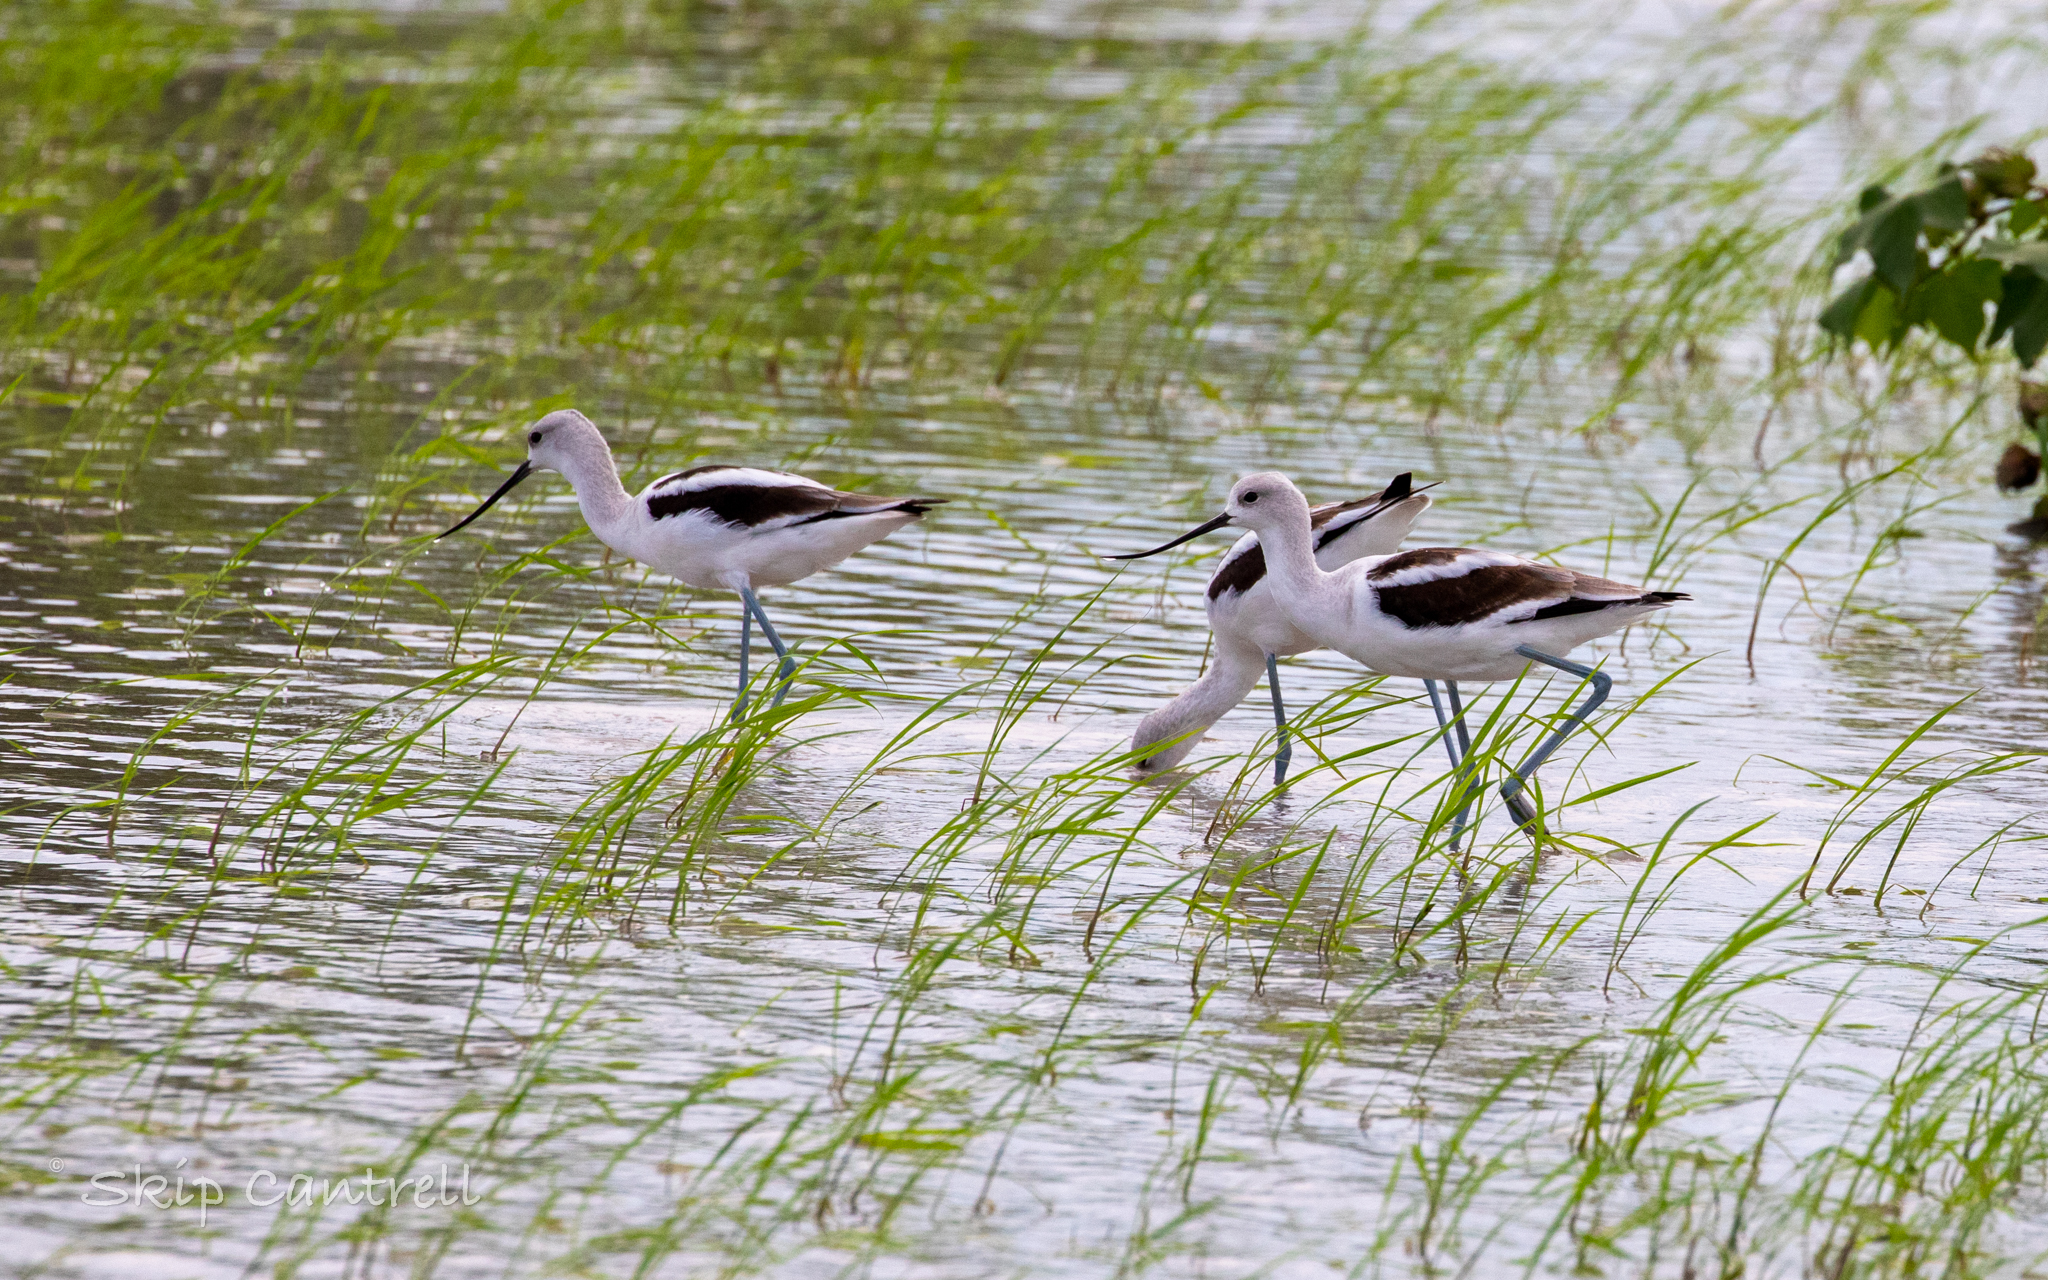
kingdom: Animalia
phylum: Chordata
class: Aves
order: Charadriiformes
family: Recurvirostridae
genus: Recurvirostra
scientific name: Recurvirostra americana
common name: American avocet
